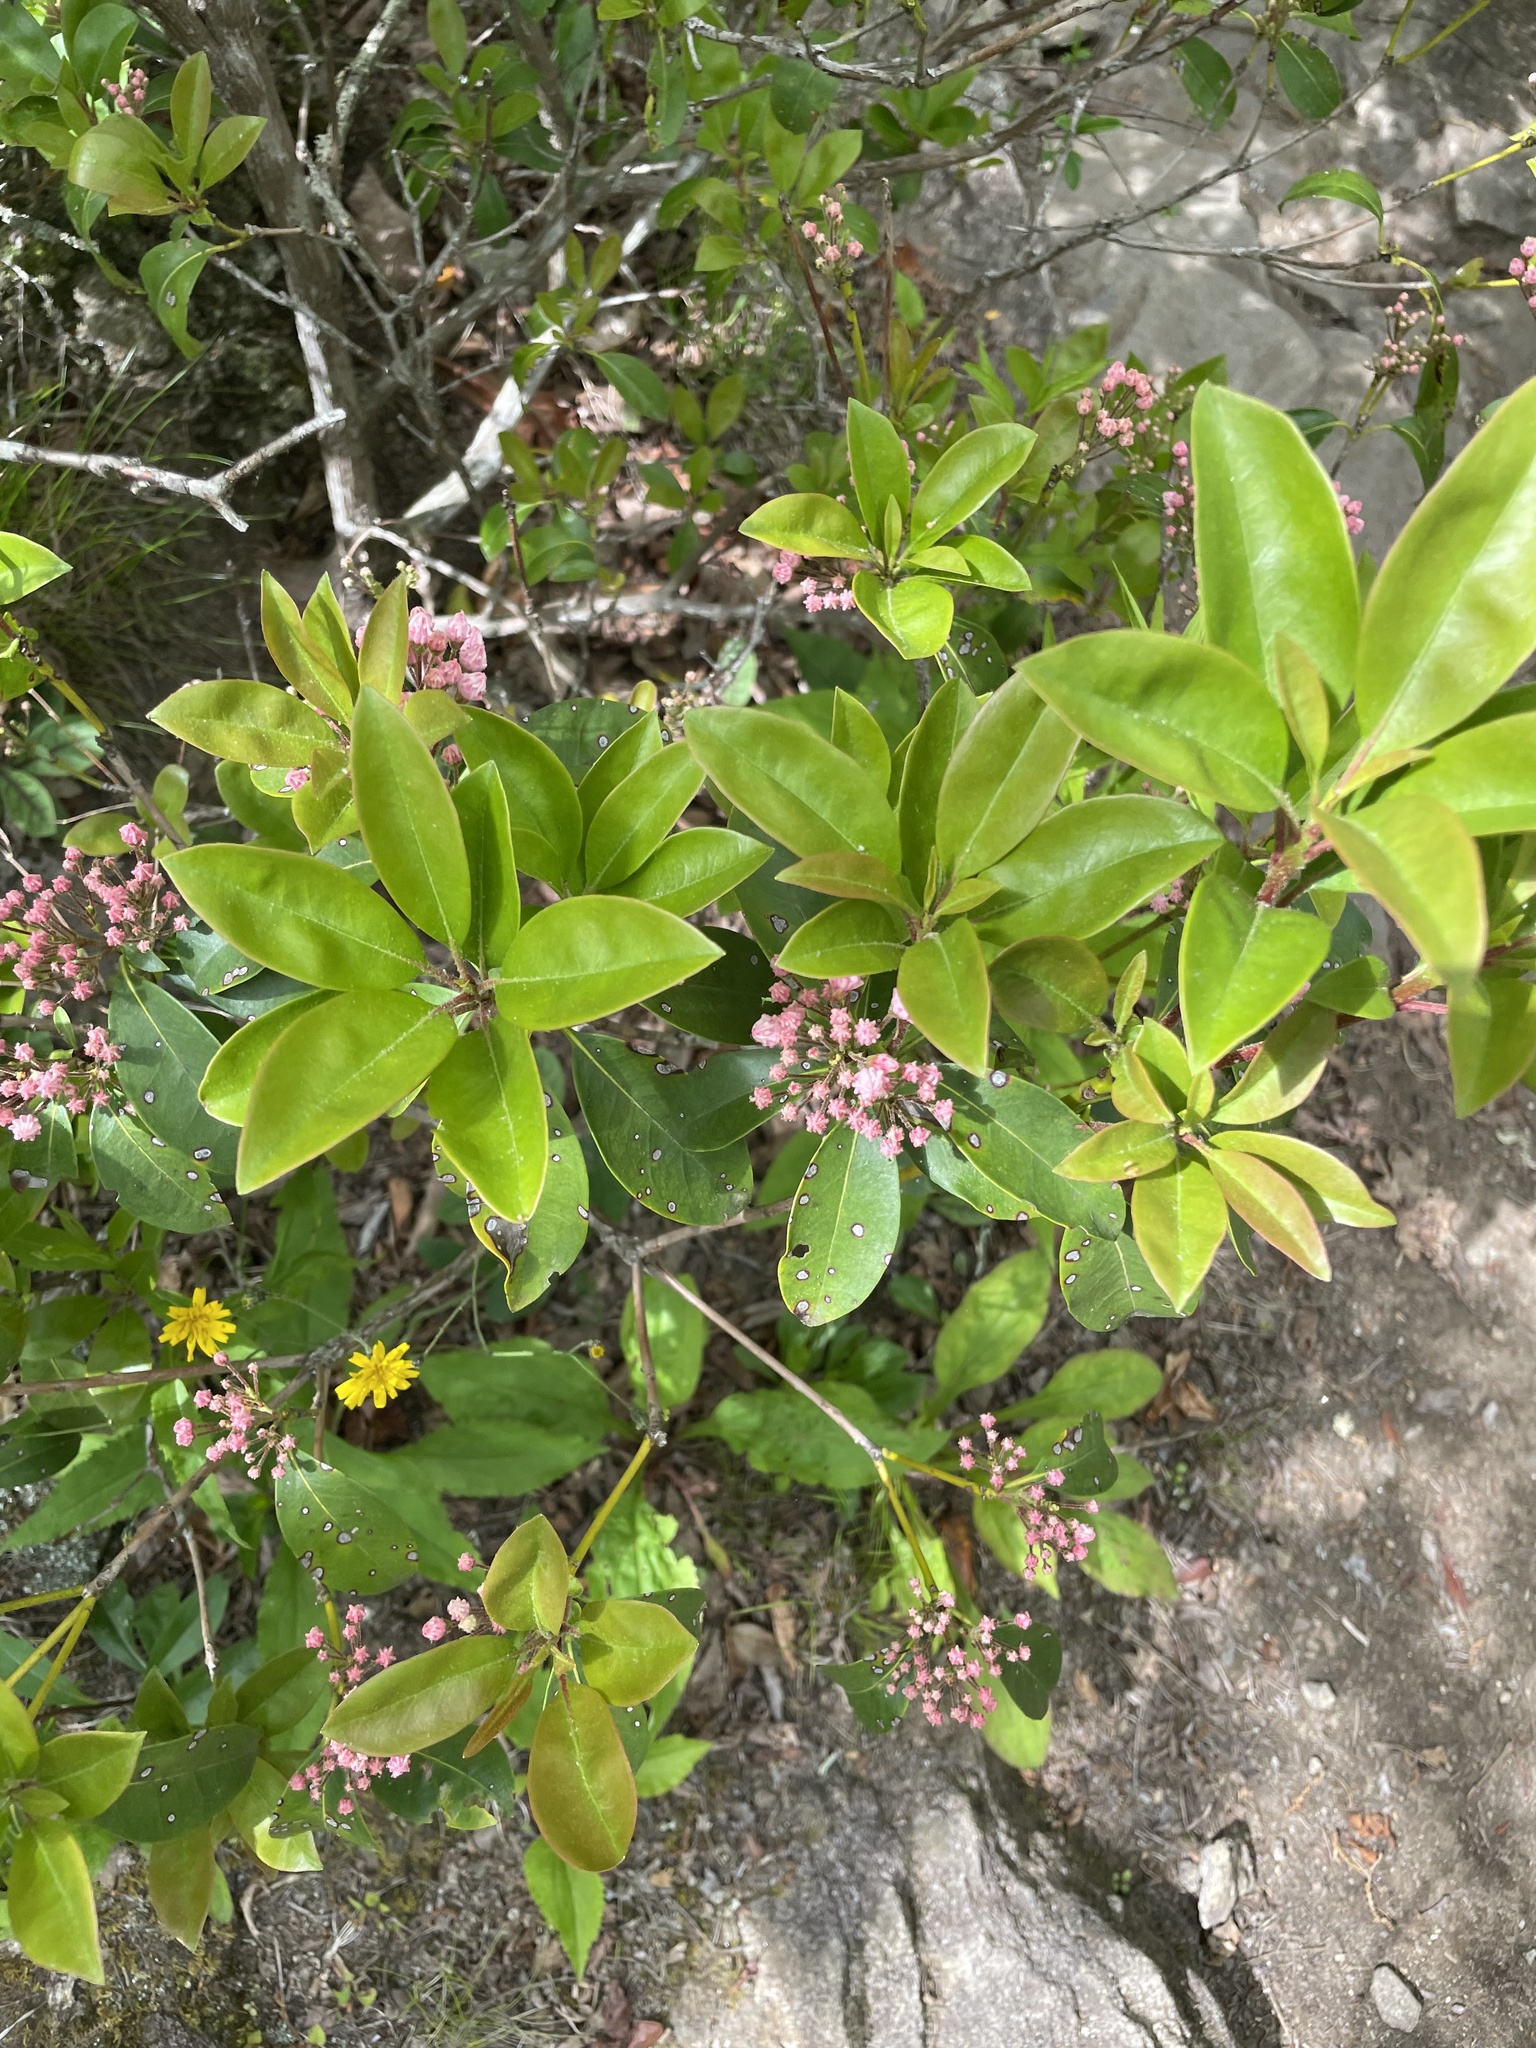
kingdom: Plantae
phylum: Tracheophyta
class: Magnoliopsida
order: Ericales
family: Ericaceae
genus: Kalmia
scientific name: Kalmia latifolia
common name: Mountain-laurel
